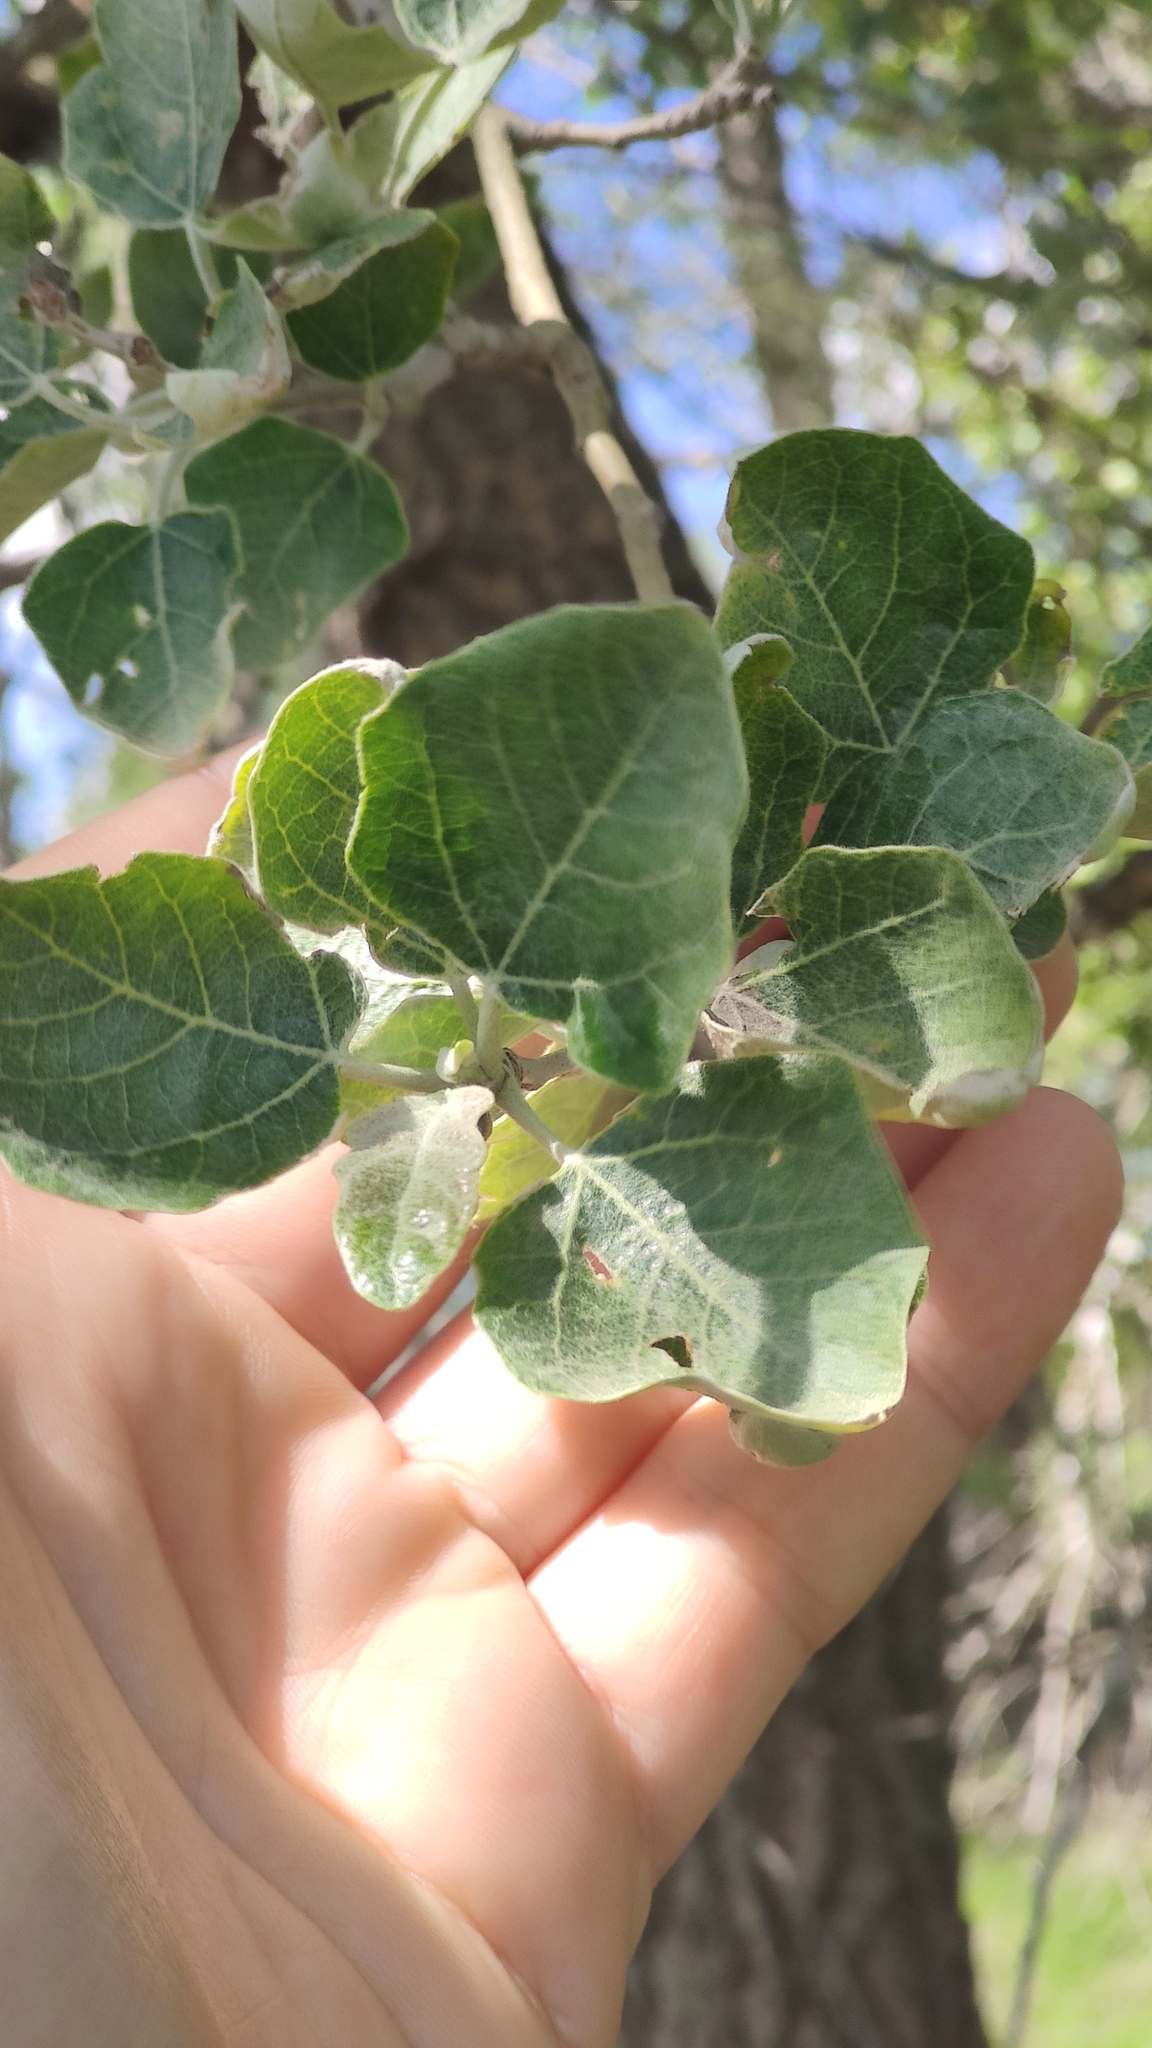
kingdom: Plantae
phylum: Tracheophyta
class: Magnoliopsida
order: Malpighiales
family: Salicaceae
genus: Populus
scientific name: Populus alba
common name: White poplar
